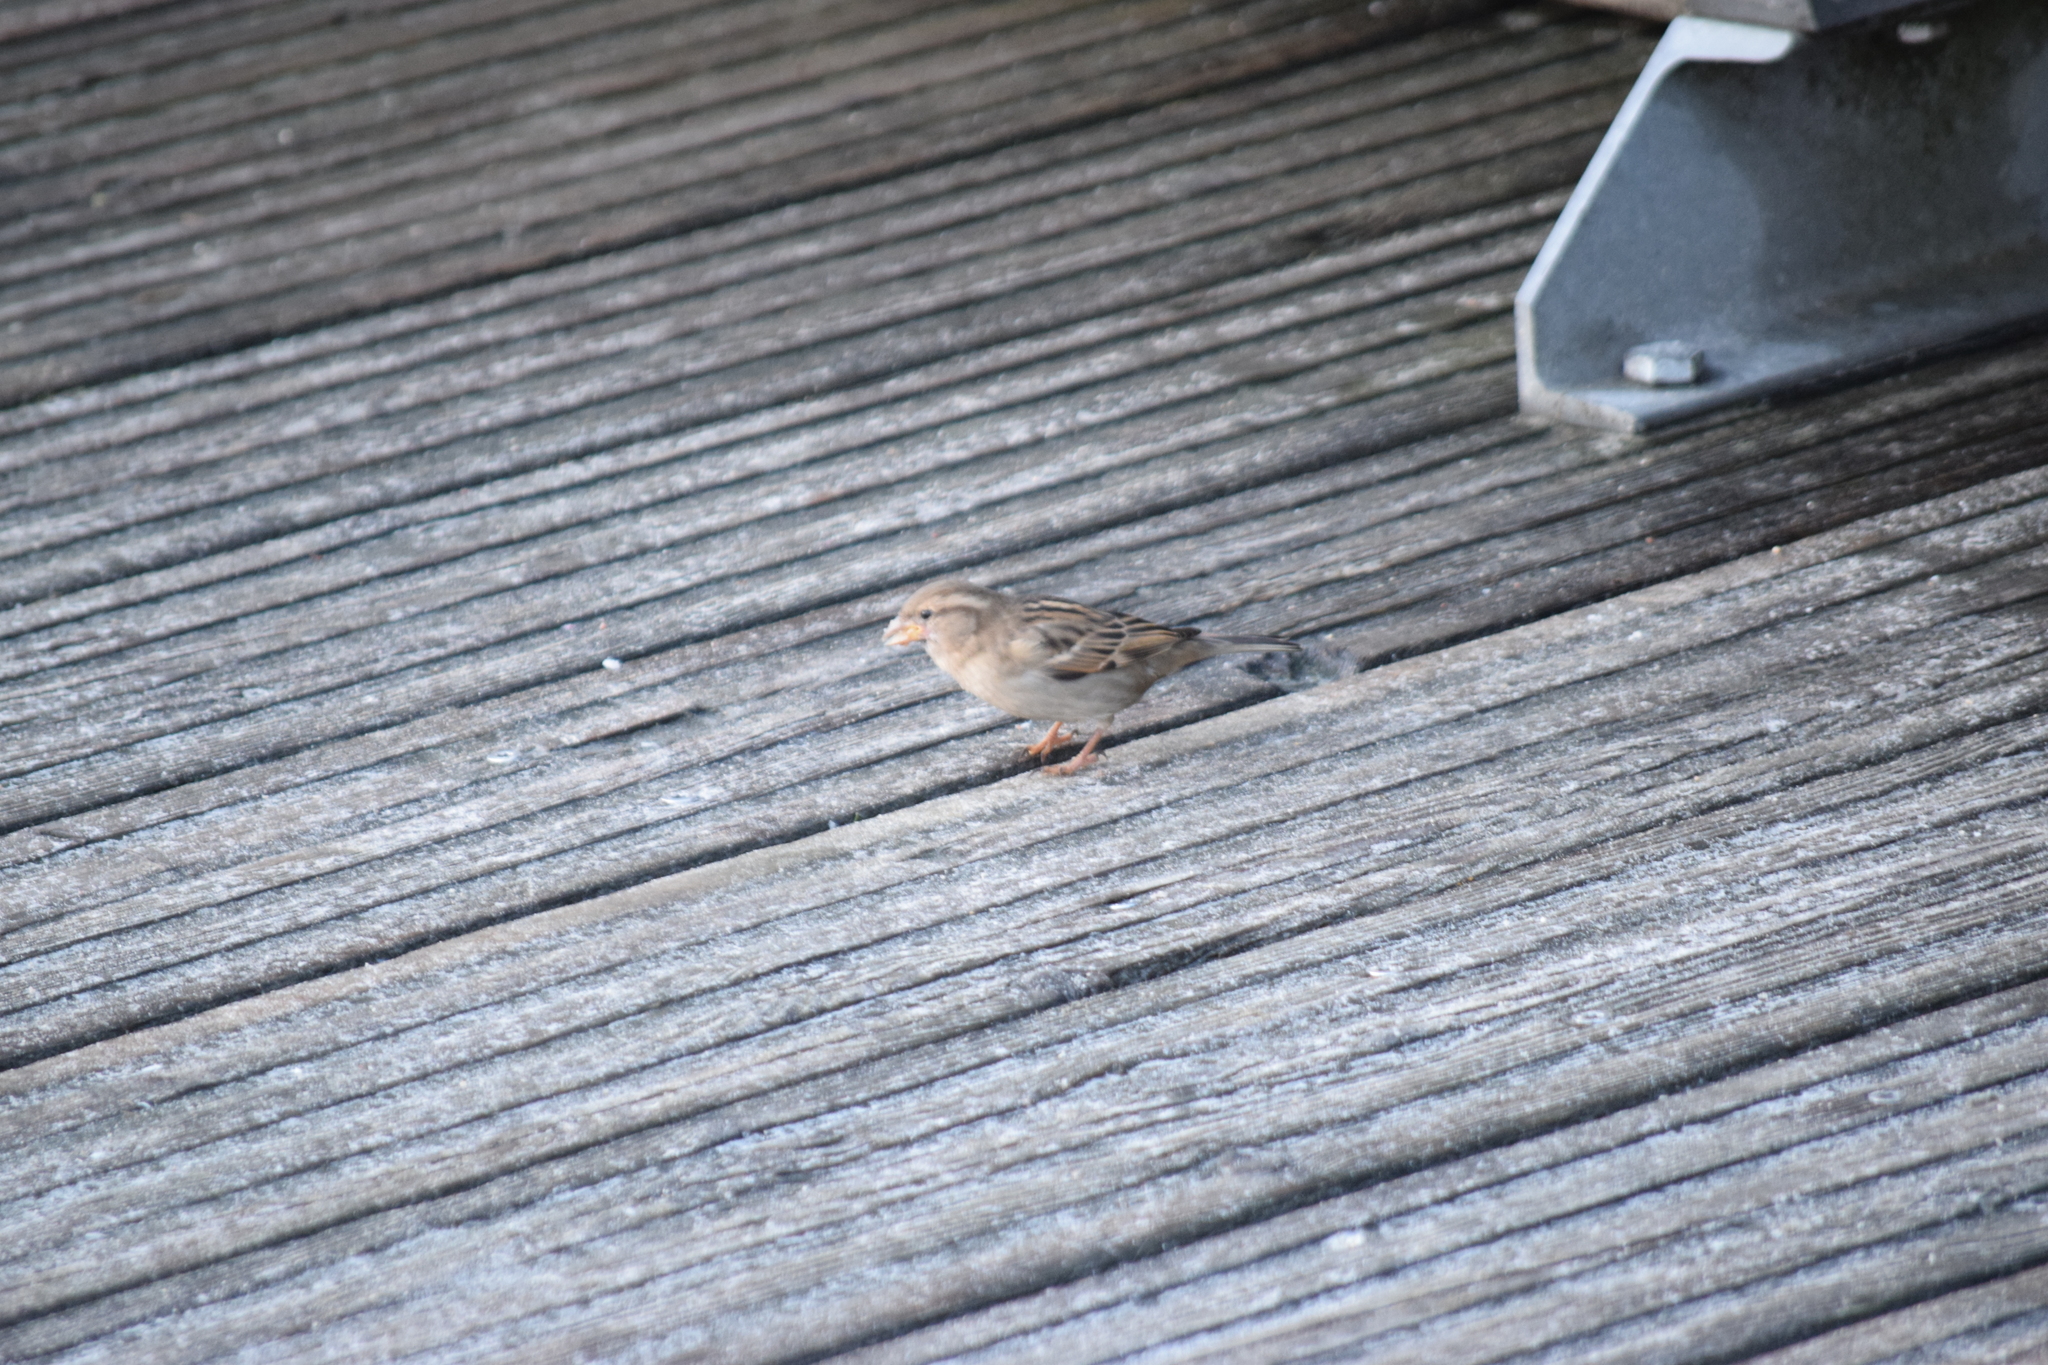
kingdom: Animalia
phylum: Chordata
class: Aves
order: Passeriformes
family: Passeridae
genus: Passer
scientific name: Passer domesticus
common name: House sparrow
